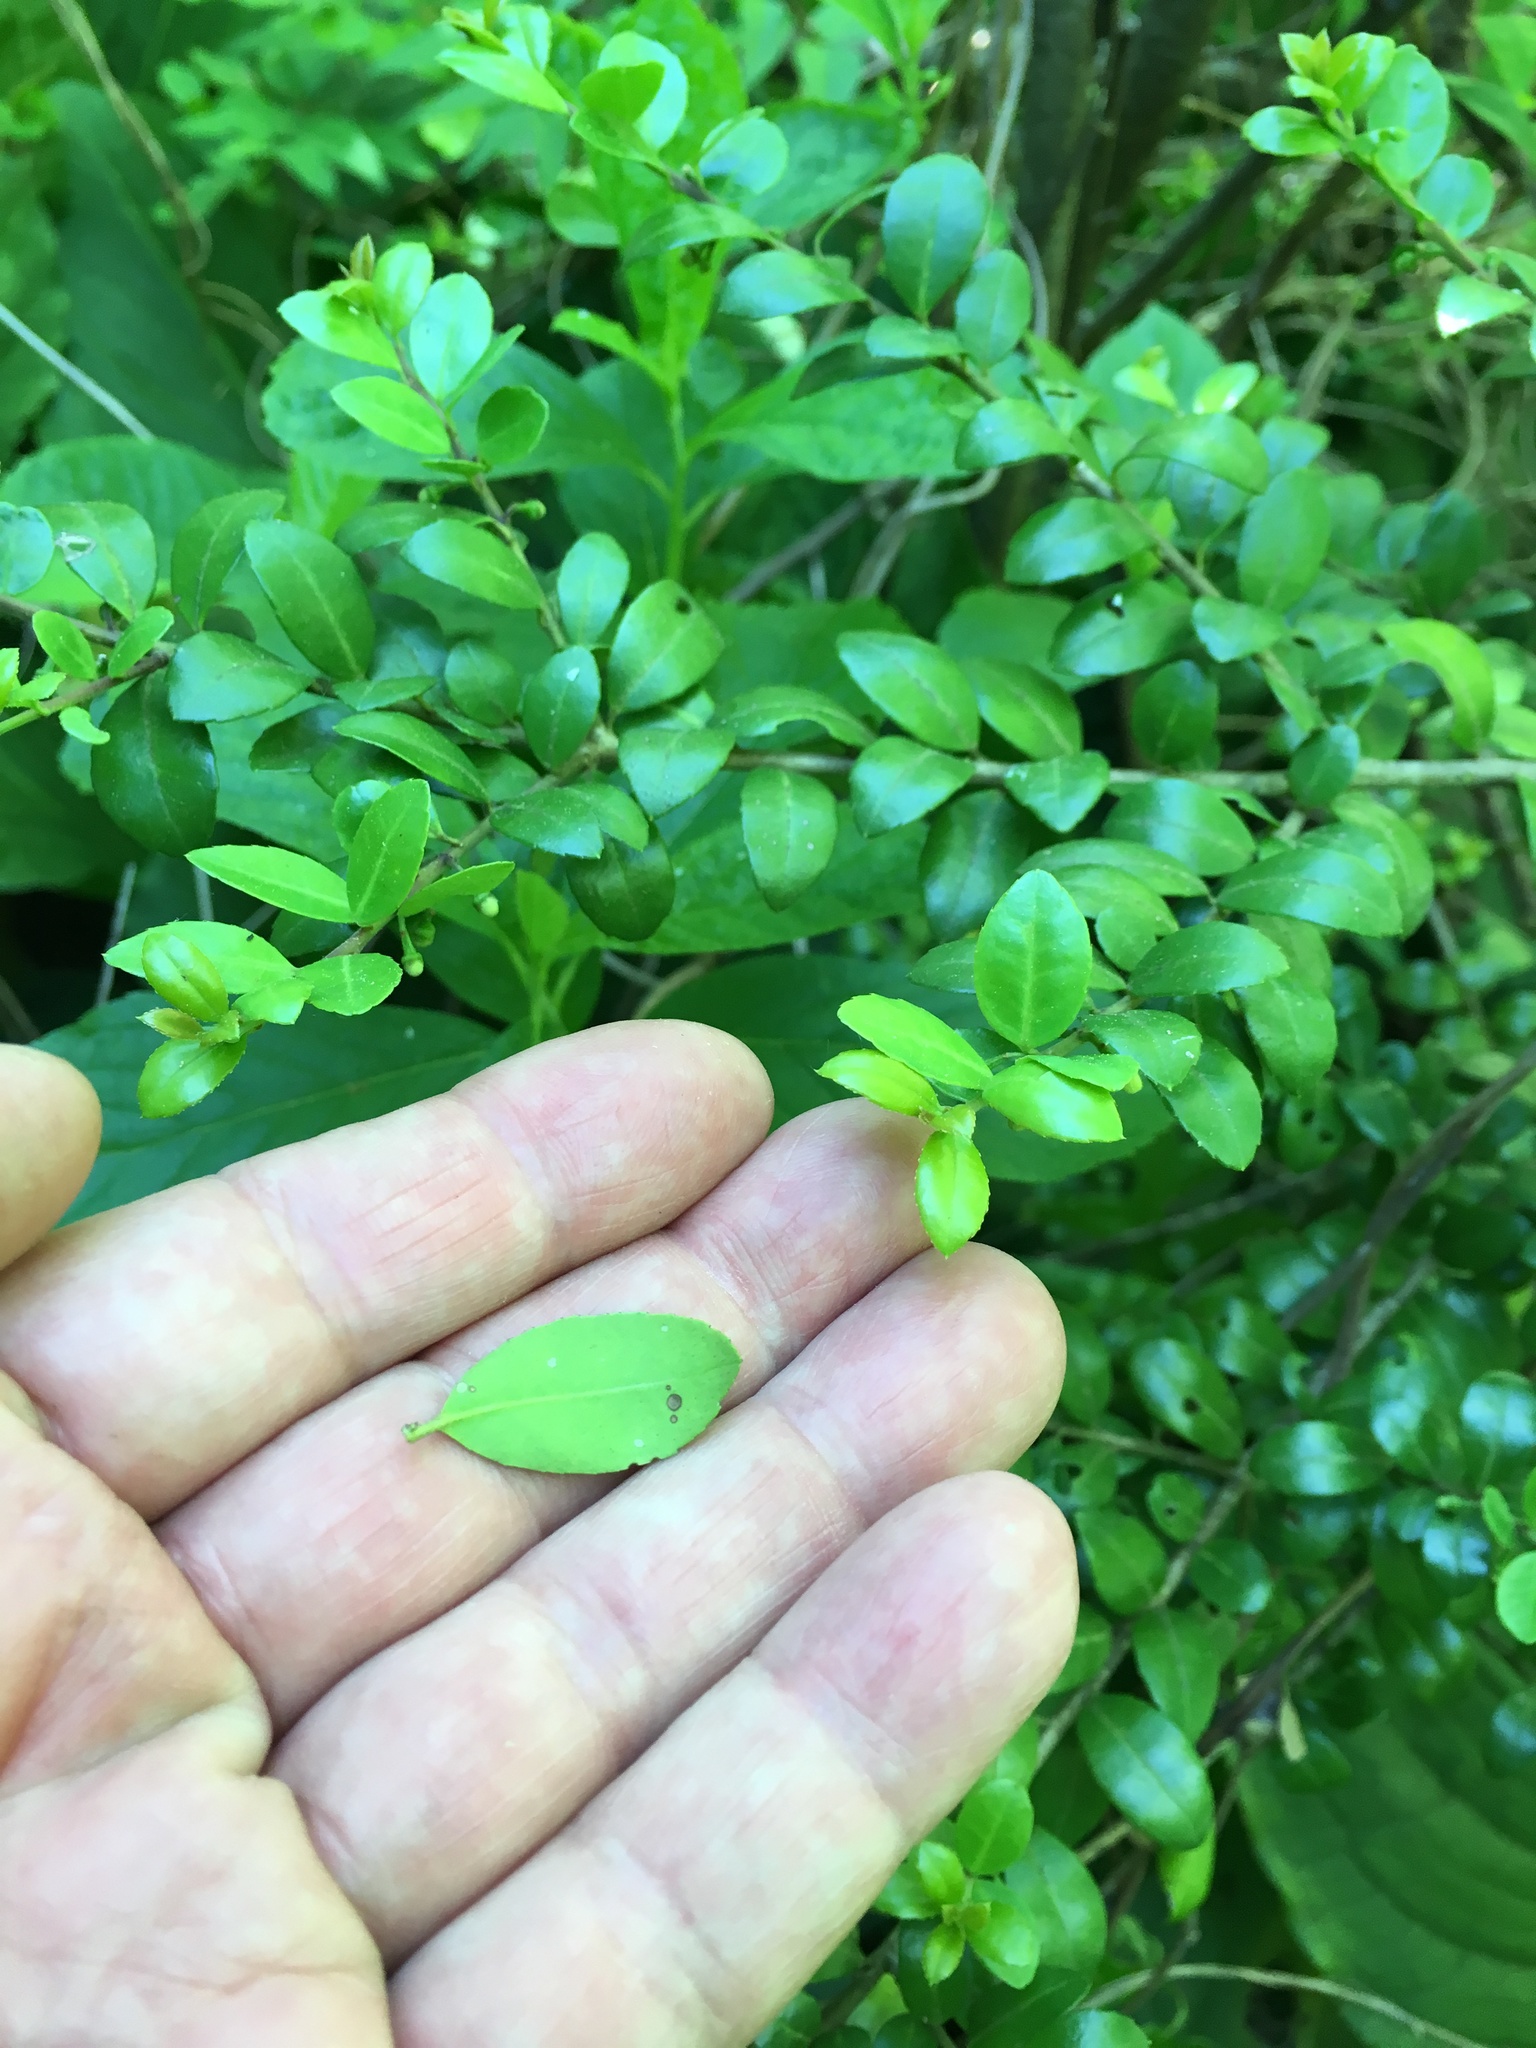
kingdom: Plantae
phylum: Tracheophyta
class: Magnoliopsida
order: Aquifoliales
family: Aquifoliaceae
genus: Ilex
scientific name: Ilex crenata
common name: Japanese holly
